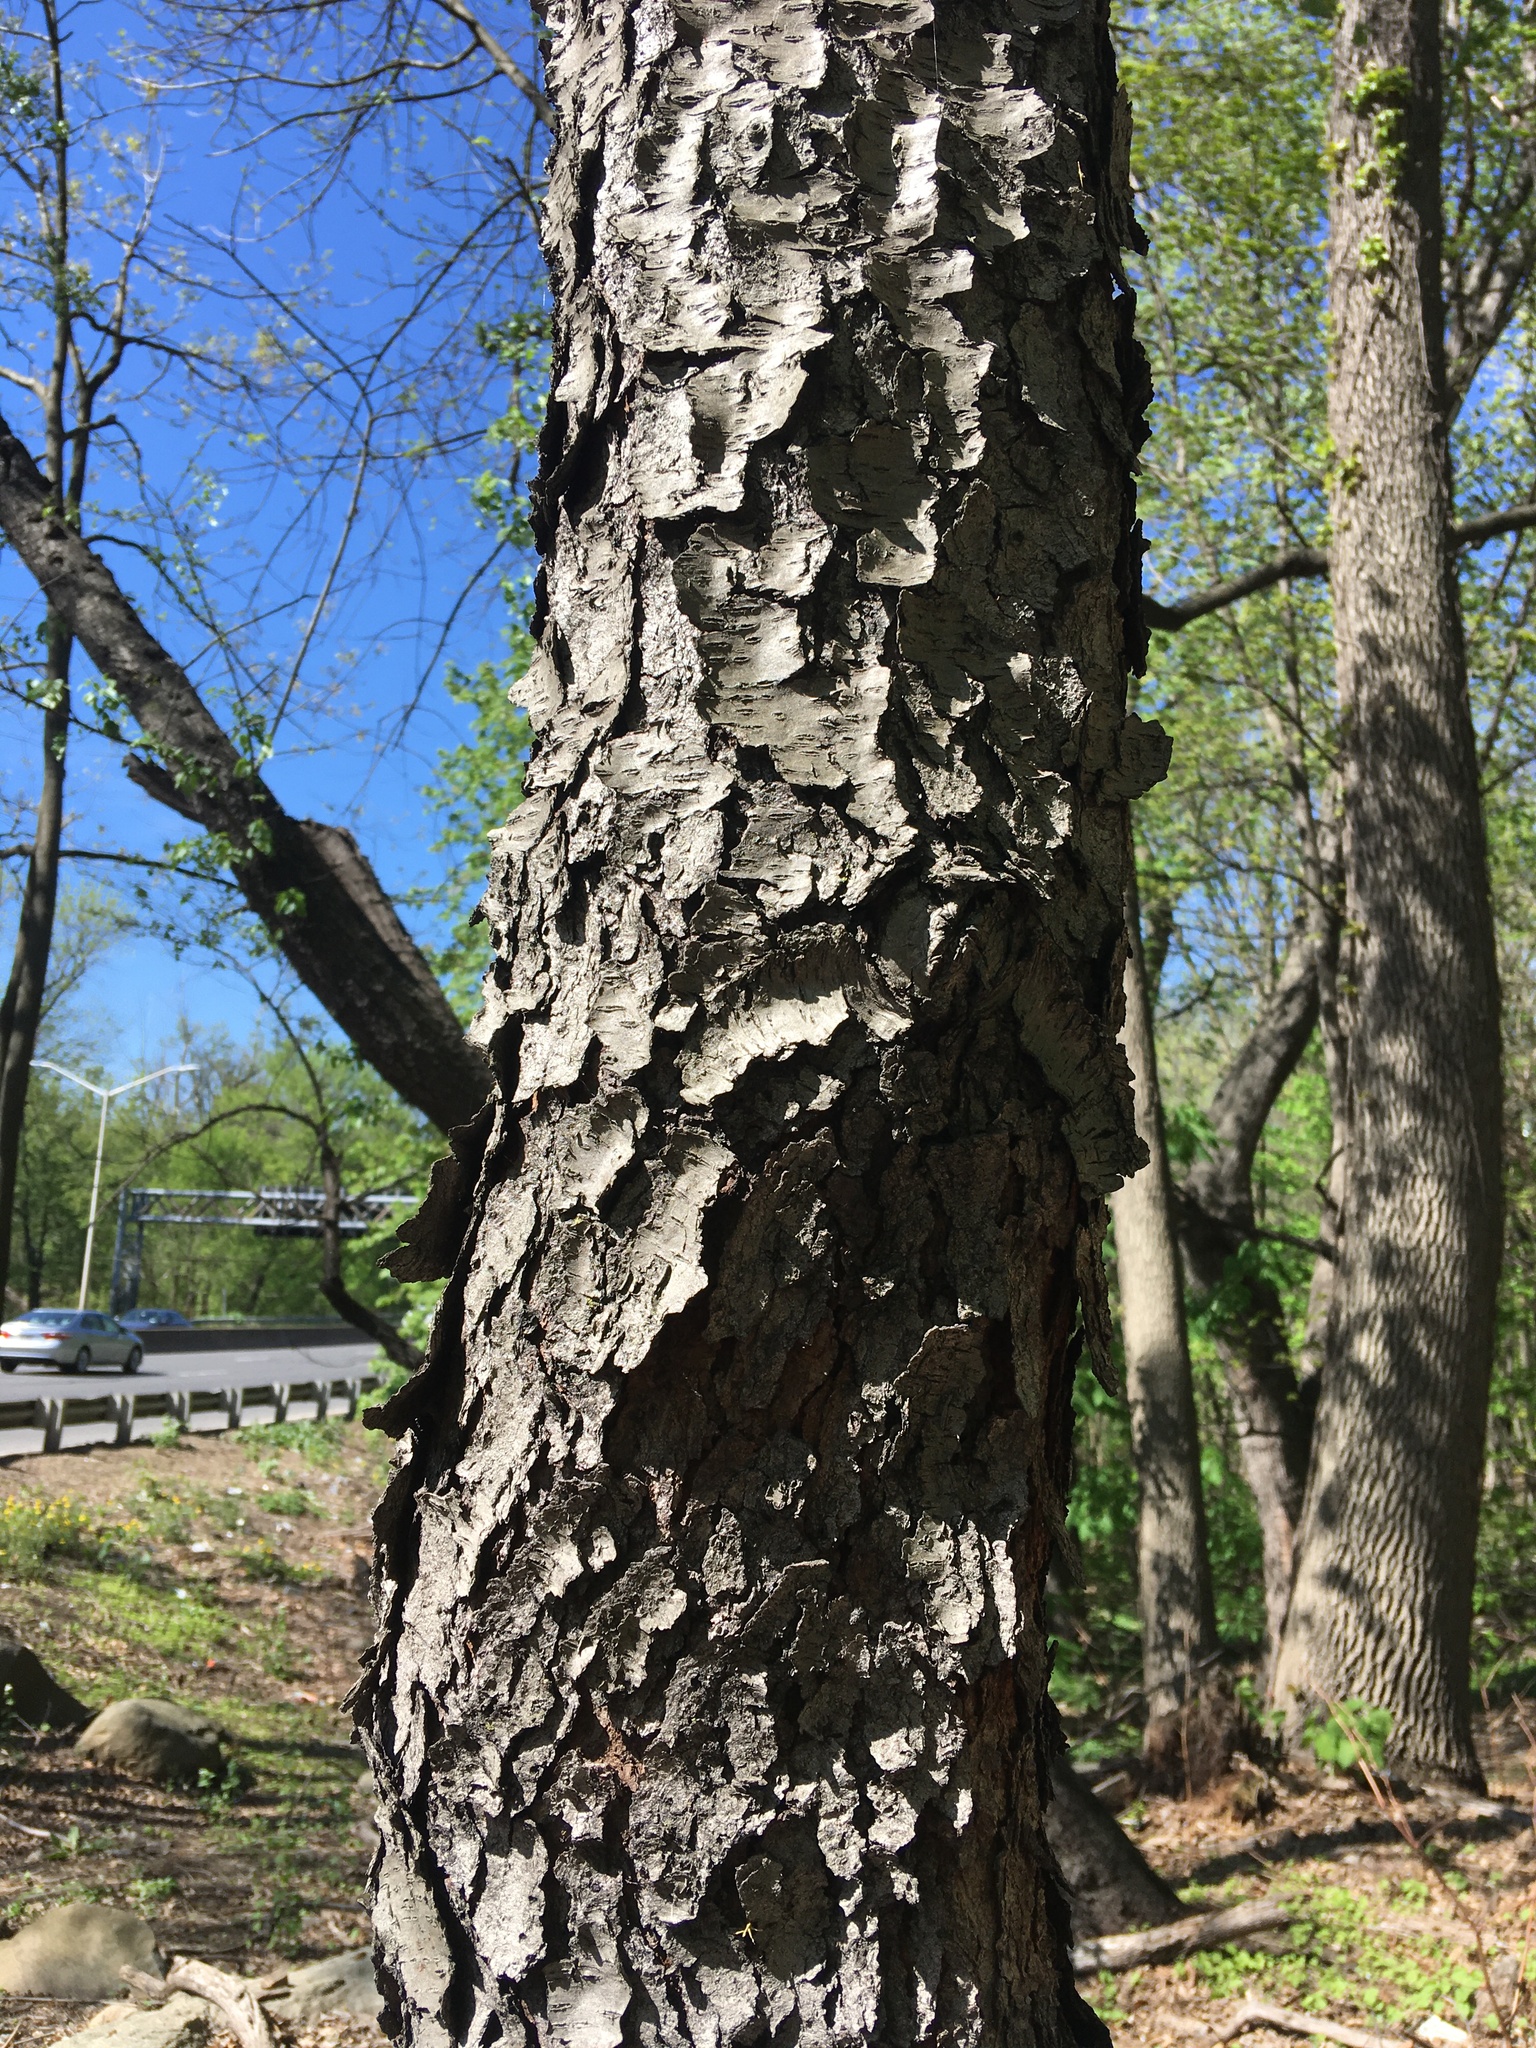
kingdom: Plantae
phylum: Tracheophyta
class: Magnoliopsida
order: Rosales
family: Rosaceae
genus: Prunus
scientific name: Prunus serotina
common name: Black cherry
